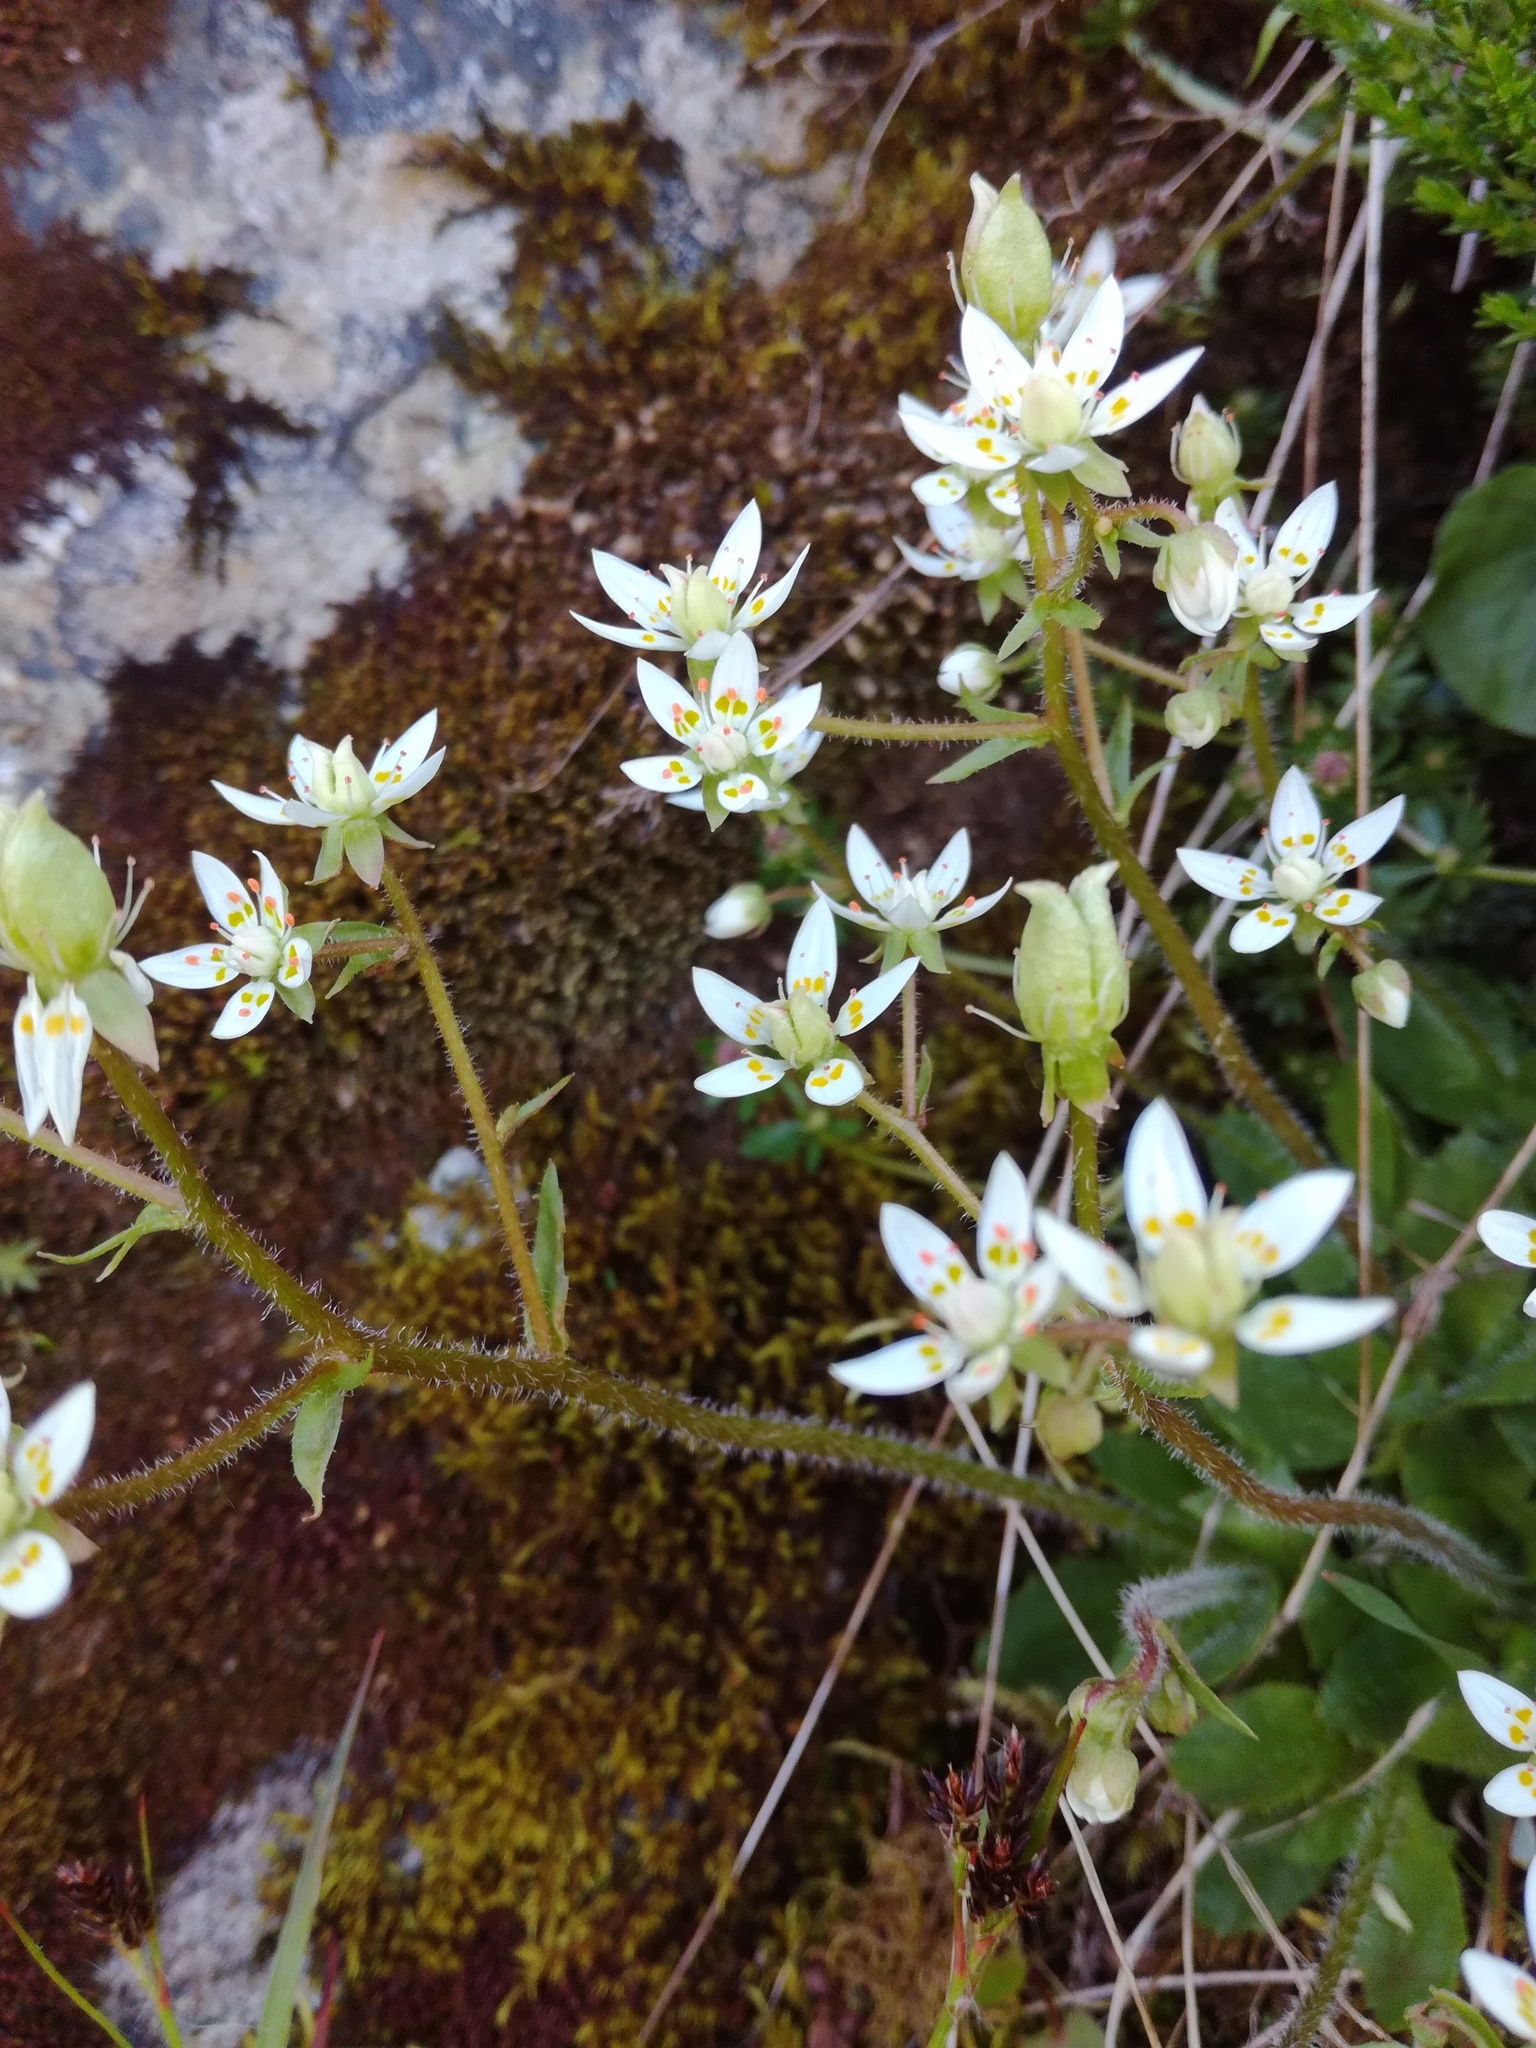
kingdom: Plantae
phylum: Tracheophyta
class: Magnoliopsida
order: Saxifragales
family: Saxifragaceae
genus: Micranthes
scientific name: Micranthes stellaris
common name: Starry saxifrage
